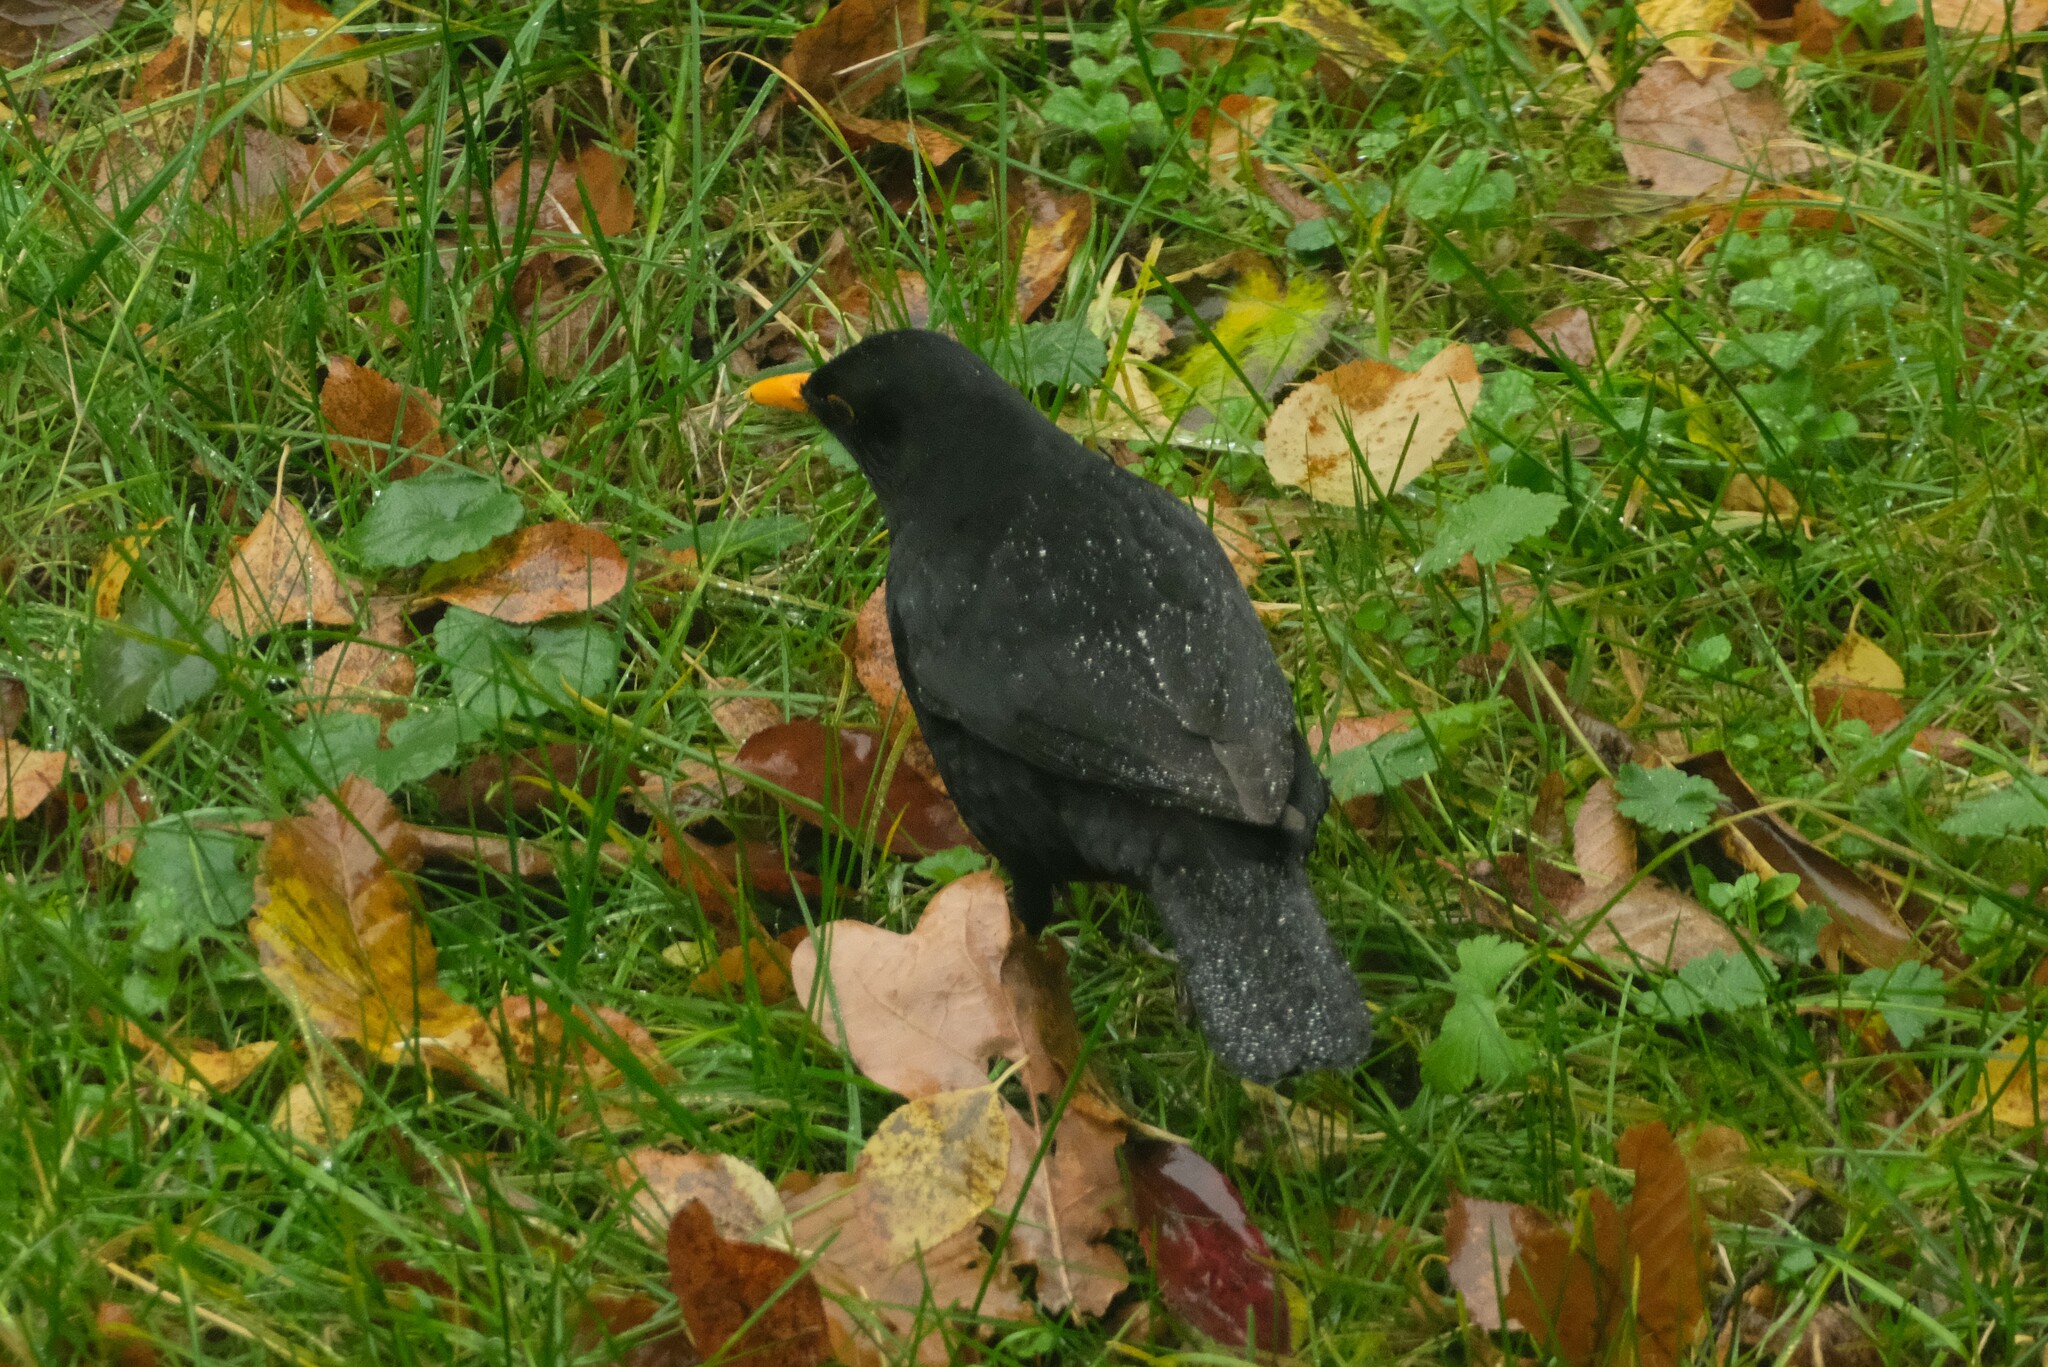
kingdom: Animalia
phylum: Chordata
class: Aves
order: Passeriformes
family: Turdidae
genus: Turdus
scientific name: Turdus merula
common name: Common blackbird
